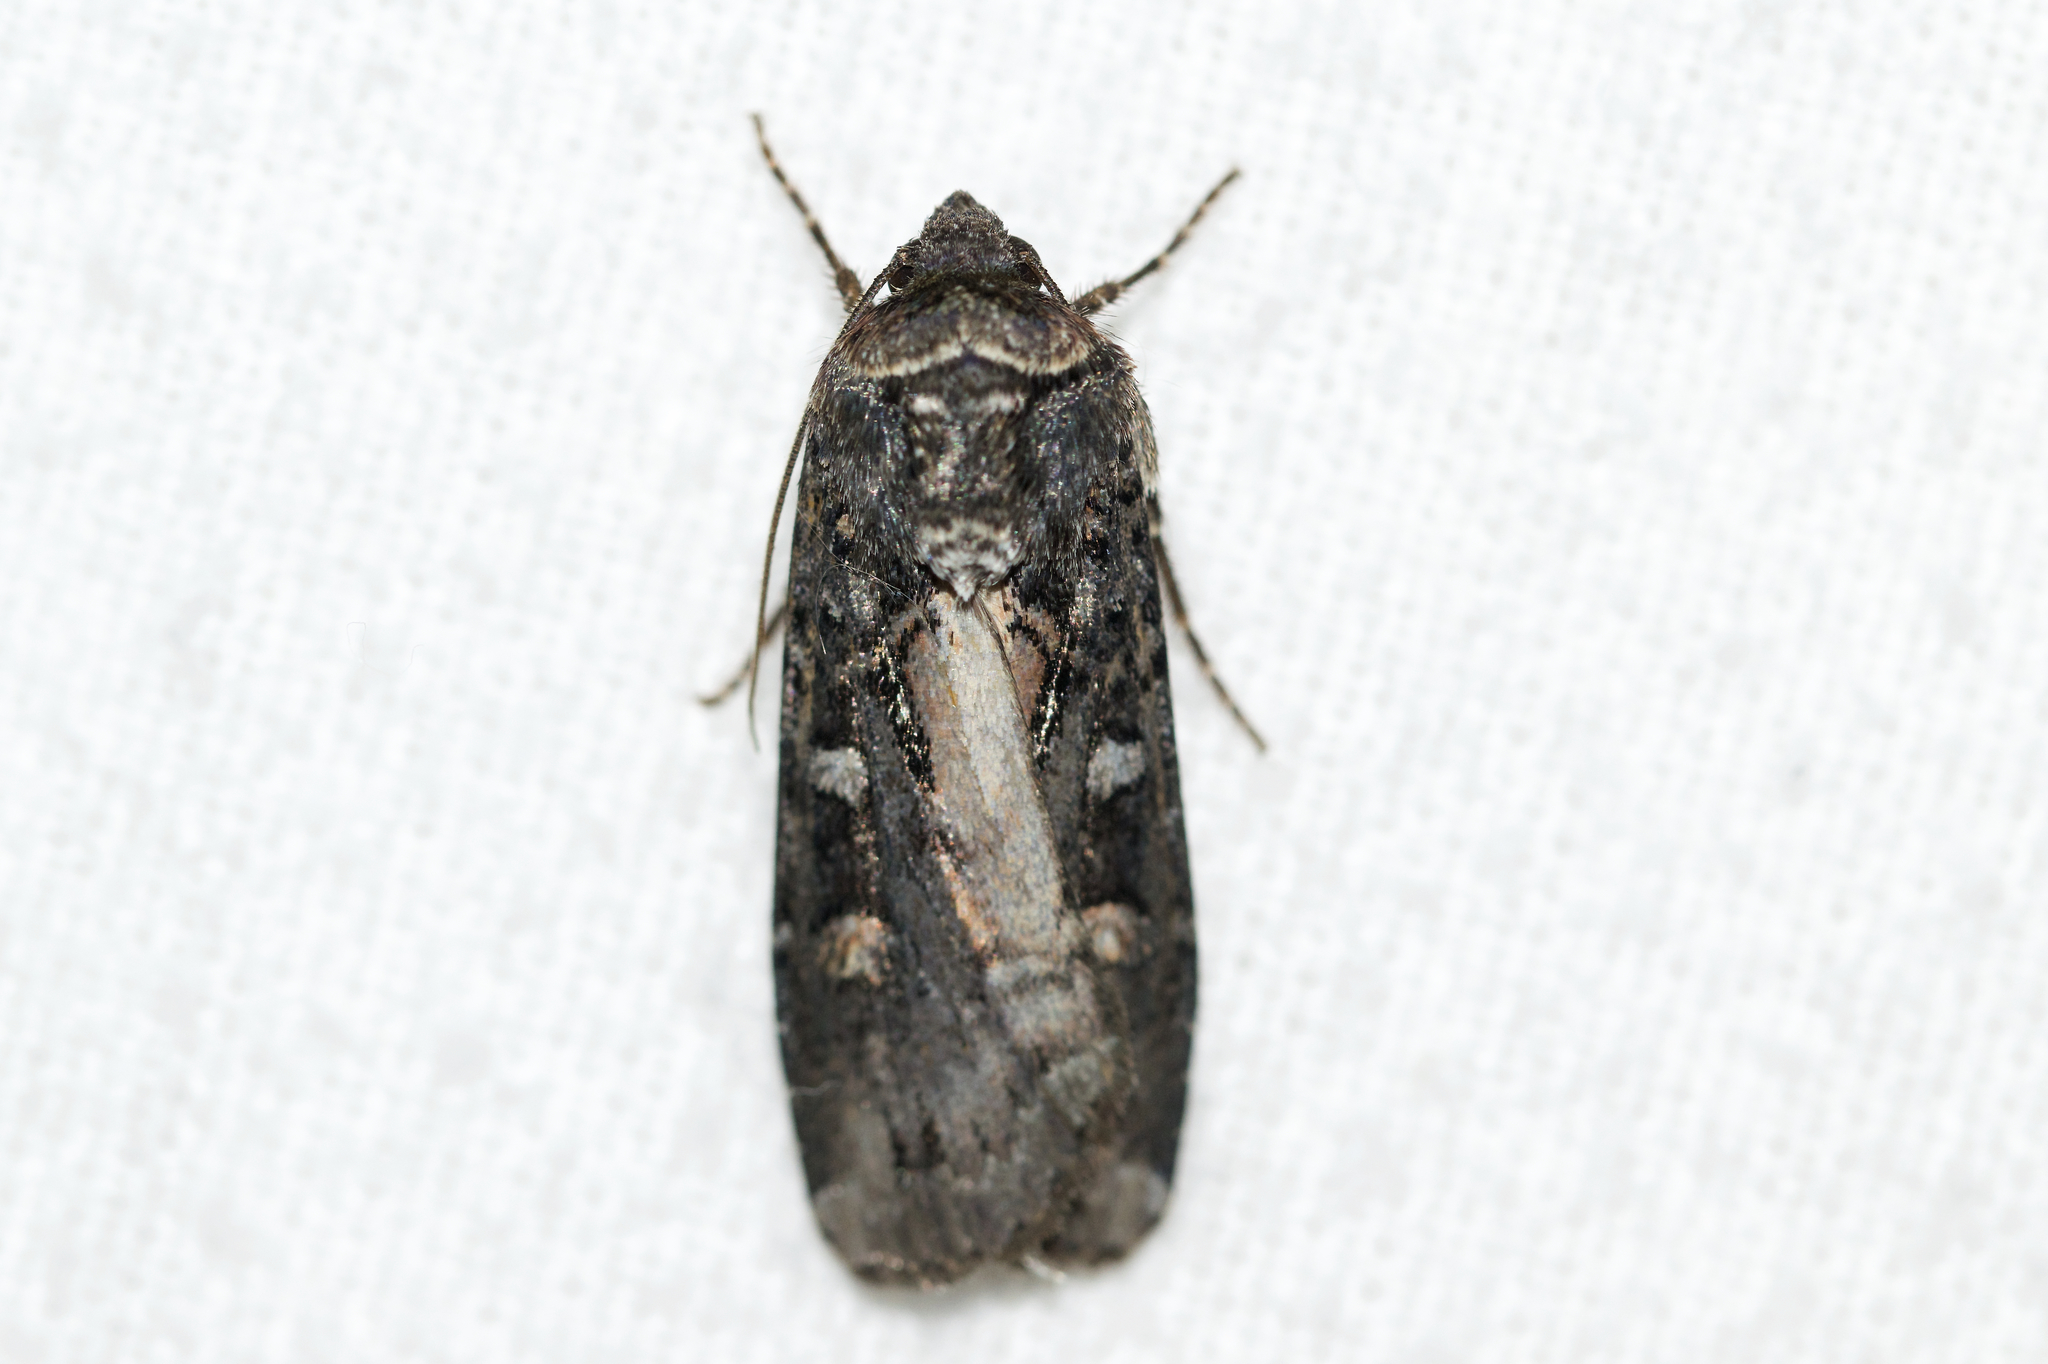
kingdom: Animalia
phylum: Arthropoda
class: Insecta
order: Lepidoptera
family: Noctuidae
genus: Actebia
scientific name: Actebia fennica
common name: Eversmann's rustic
